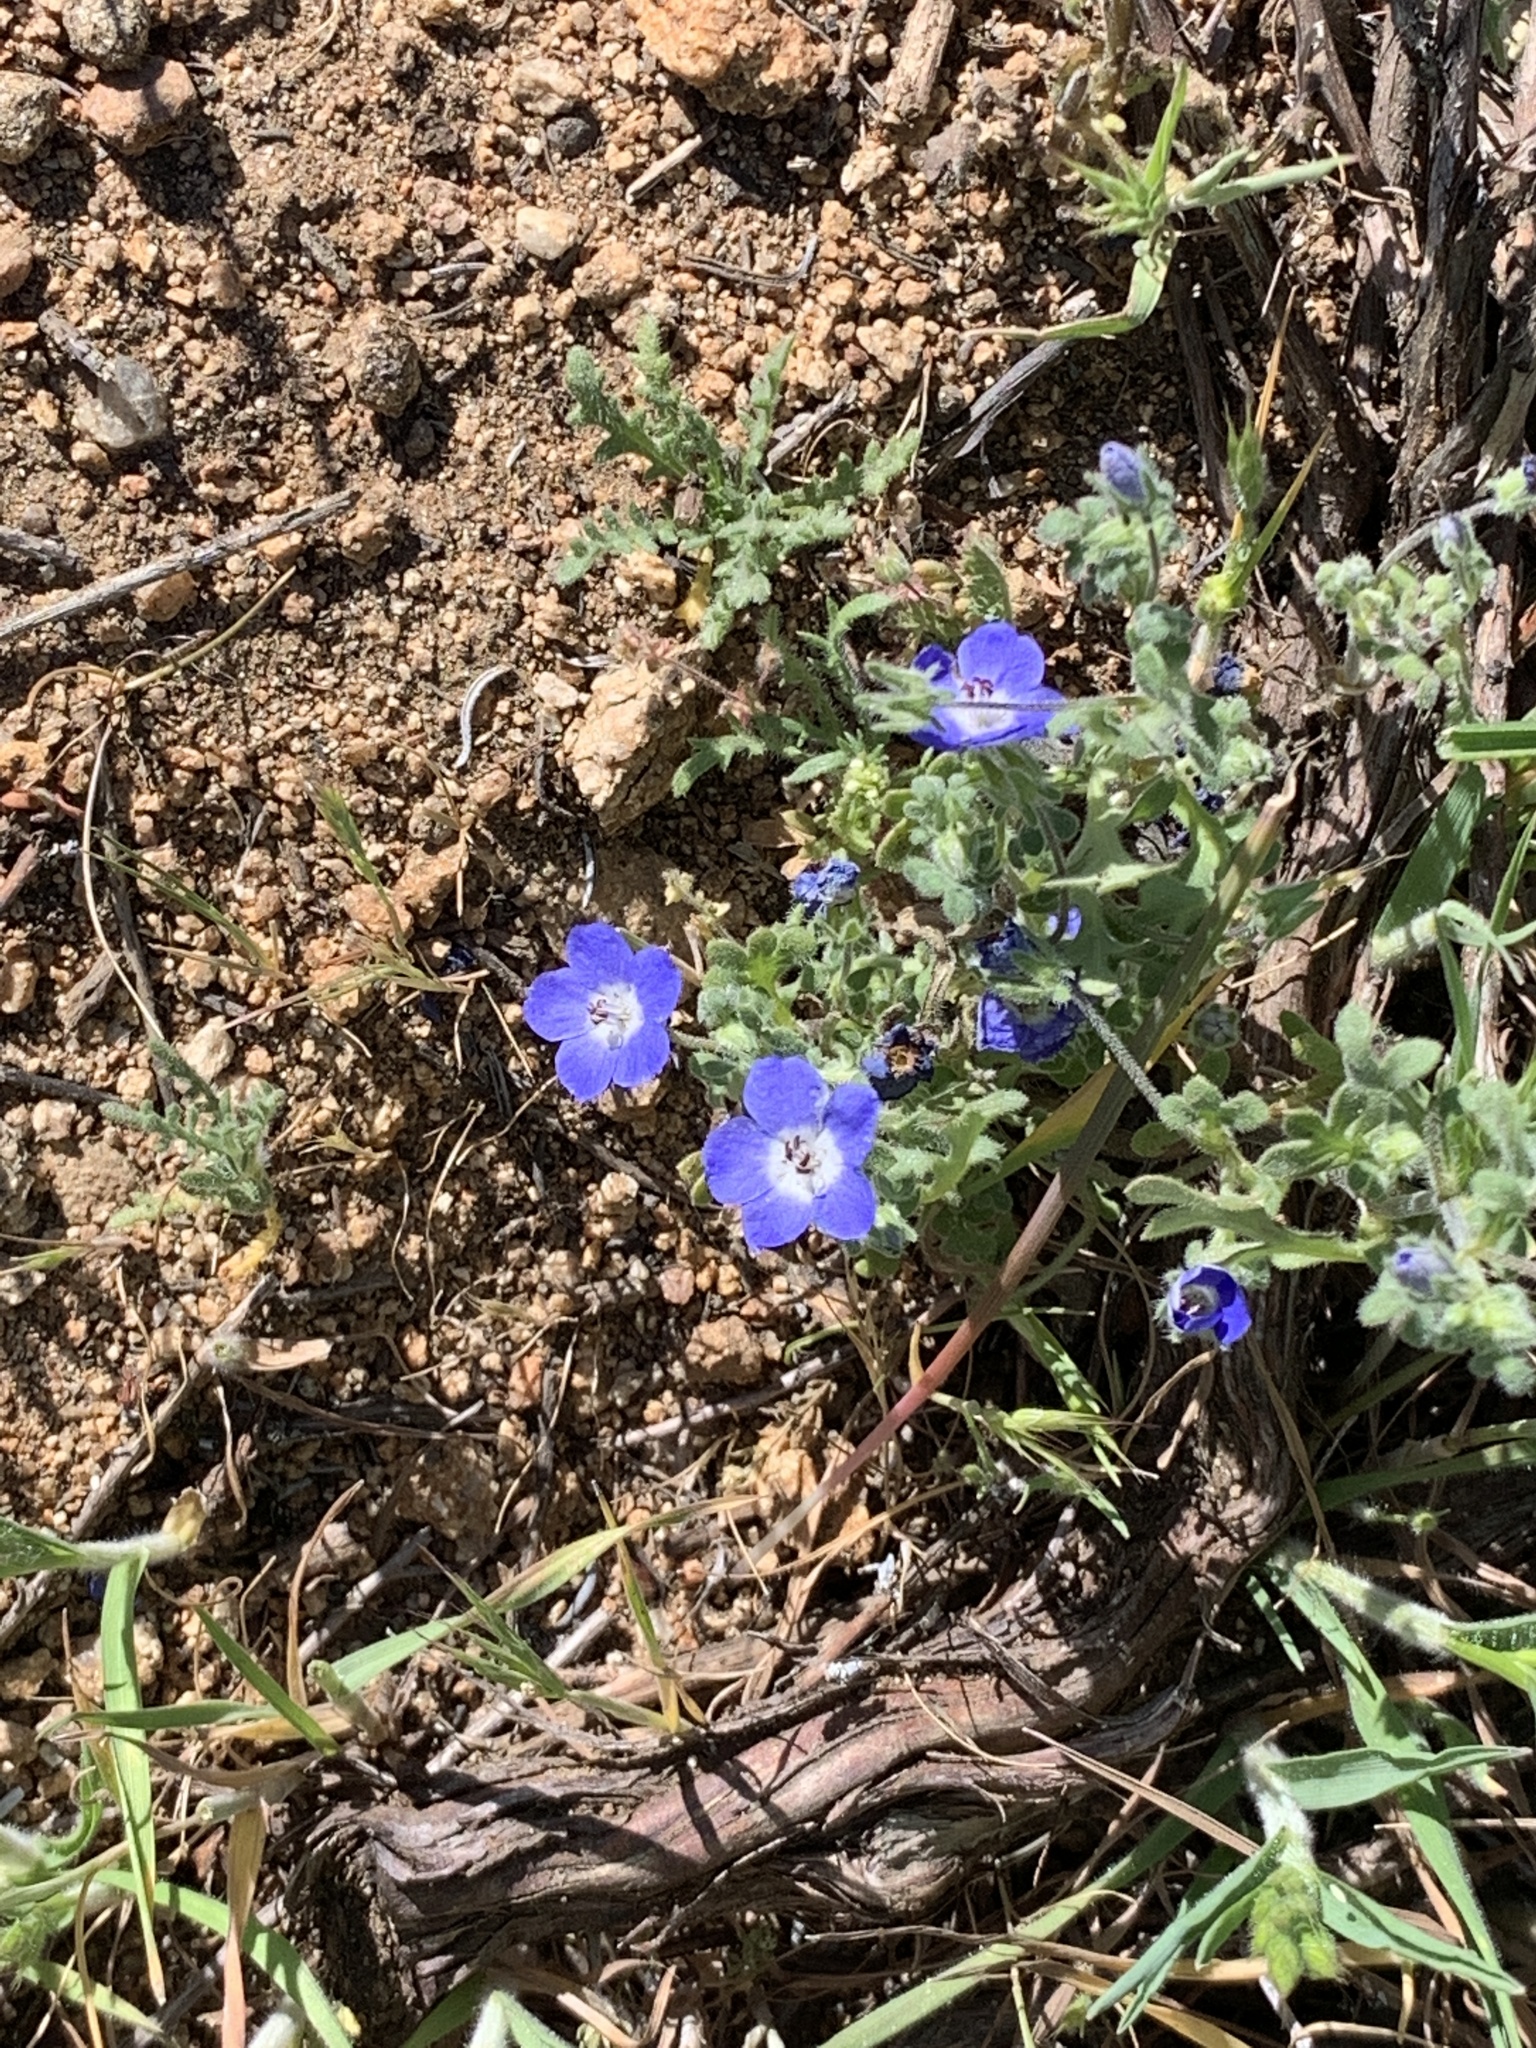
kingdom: Plantae
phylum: Tracheophyta
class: Magnoliopsida
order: Boraginales
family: Hydrophyllaceae
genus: Nemophila
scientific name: Nemophila menziesii
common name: Baby's-blue-eyes
